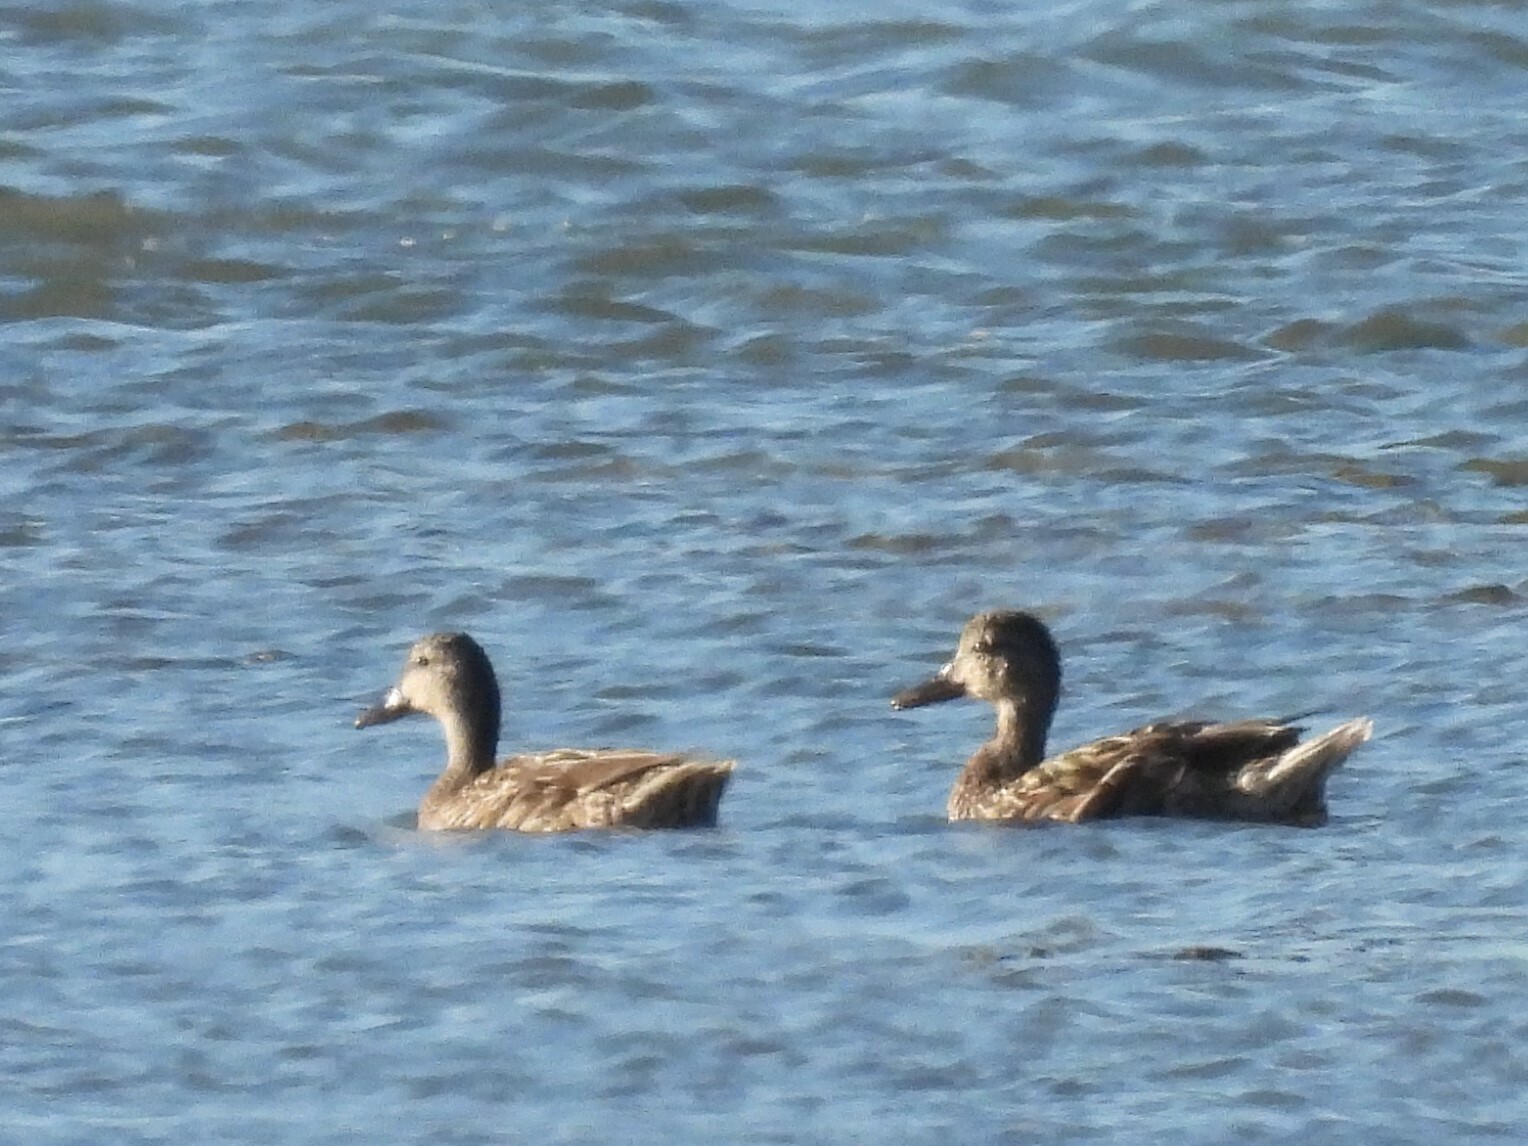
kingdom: Animalia
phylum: Chordata
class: Aves
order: Anseriformes
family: Anatidae
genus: Mareca
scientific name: Mareca strepera
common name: Gadwall
